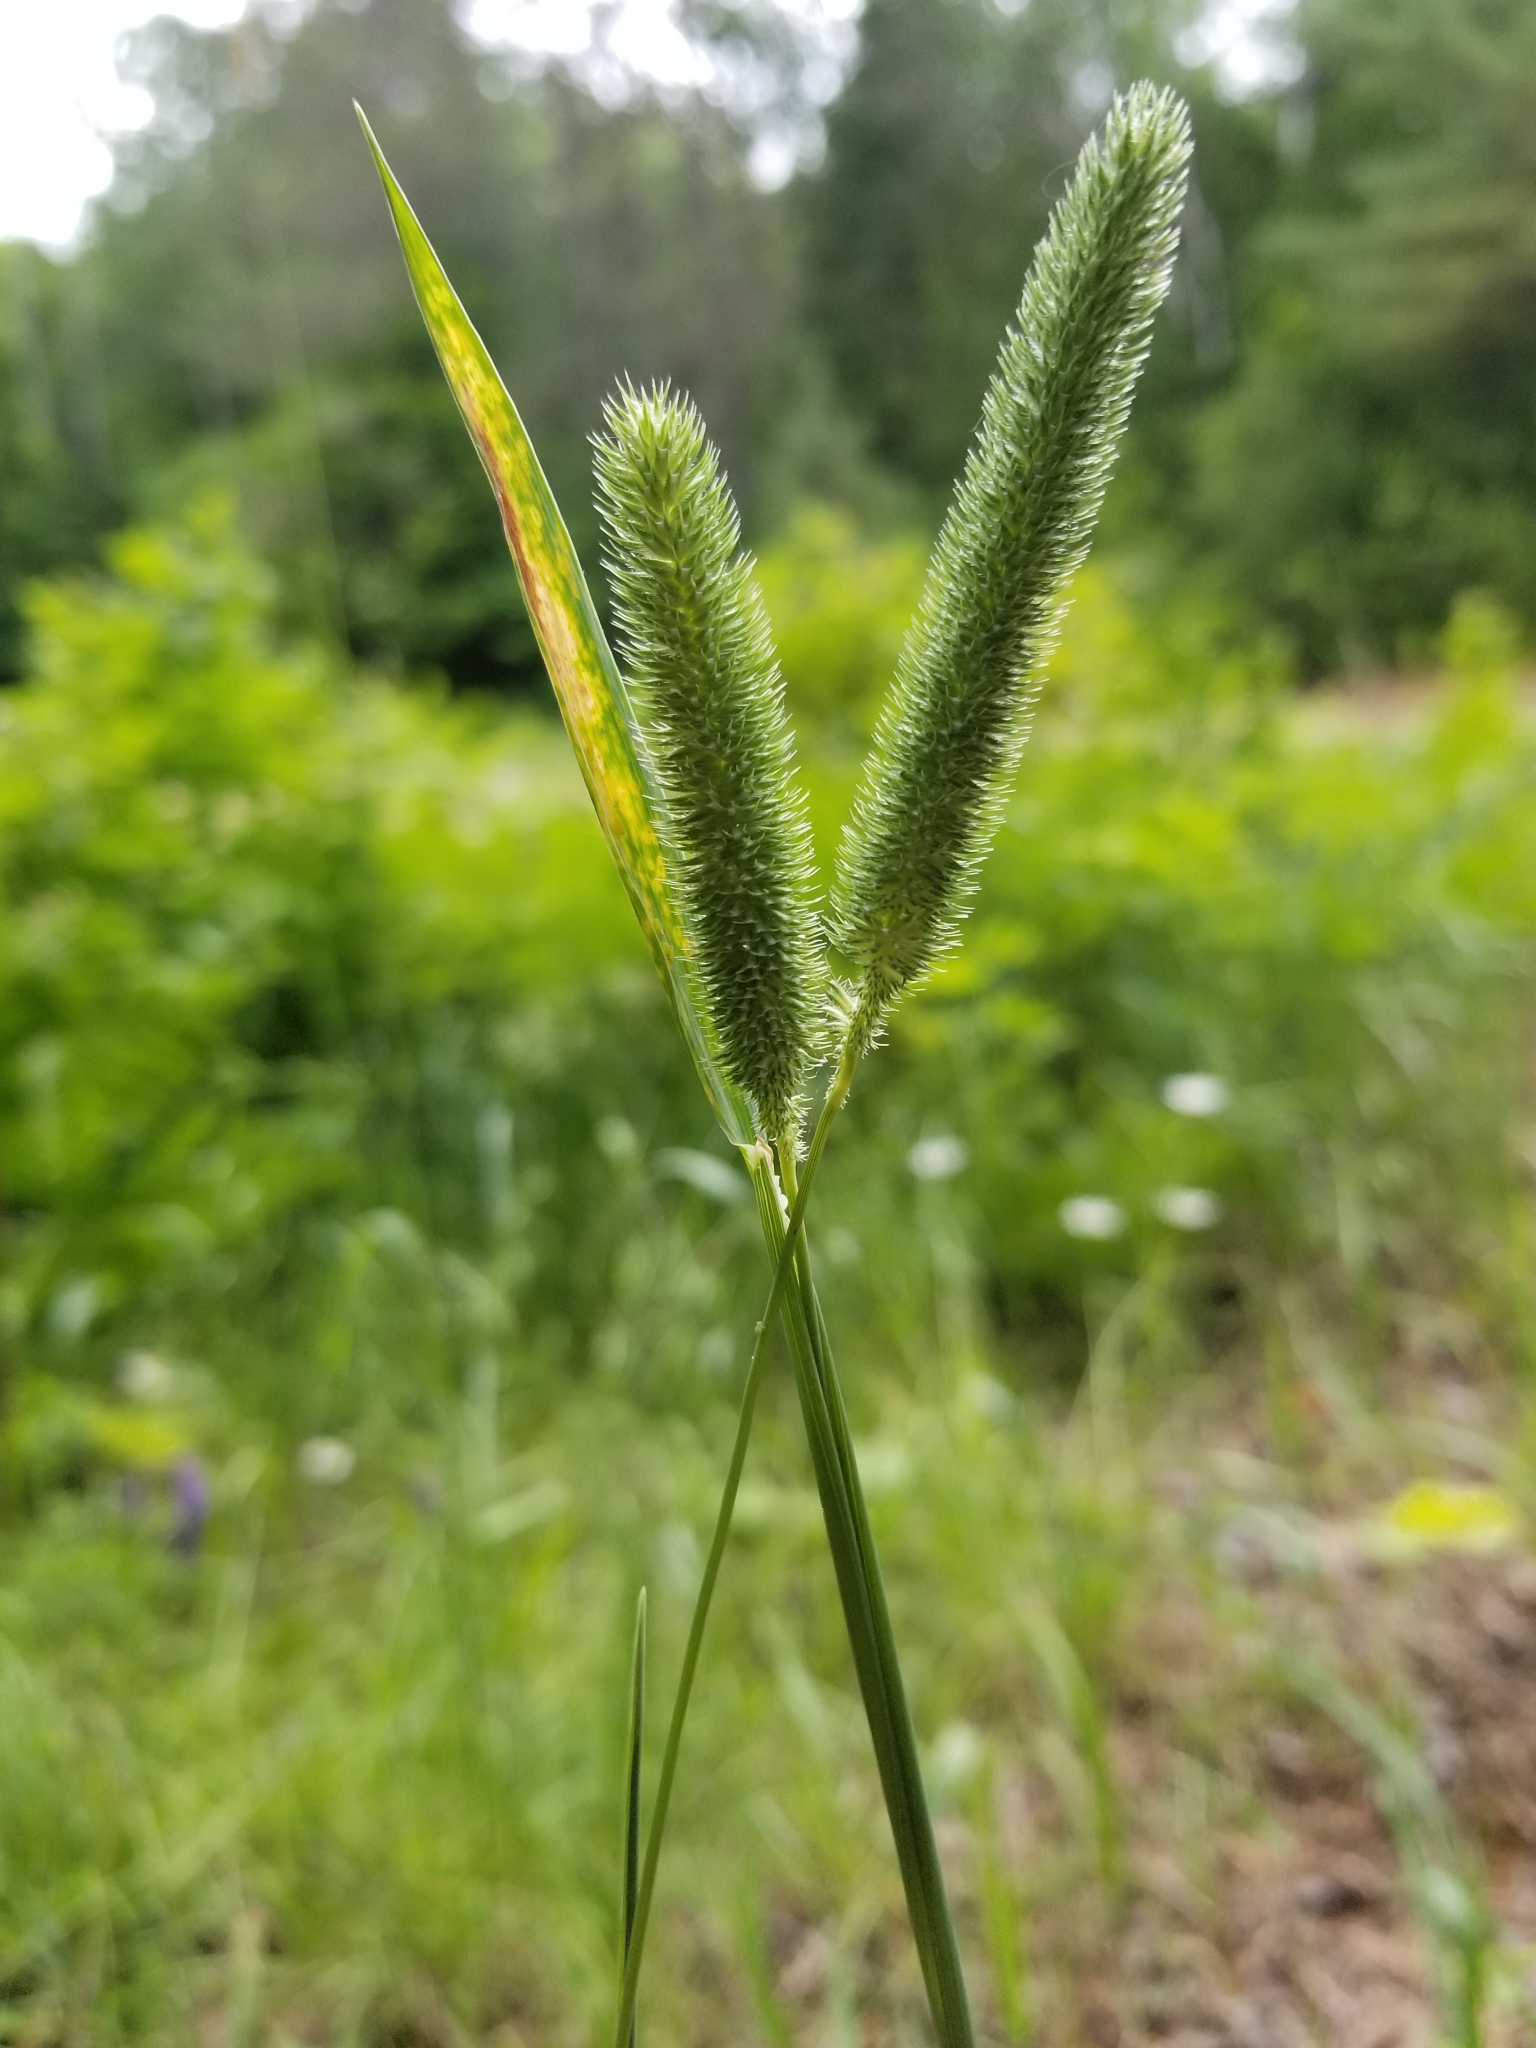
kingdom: Plantae
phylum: Tracheophyta
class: Liliopsida
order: Poales
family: Poaceae
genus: Phleum
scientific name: Phleum pratense
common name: Timothy grass
